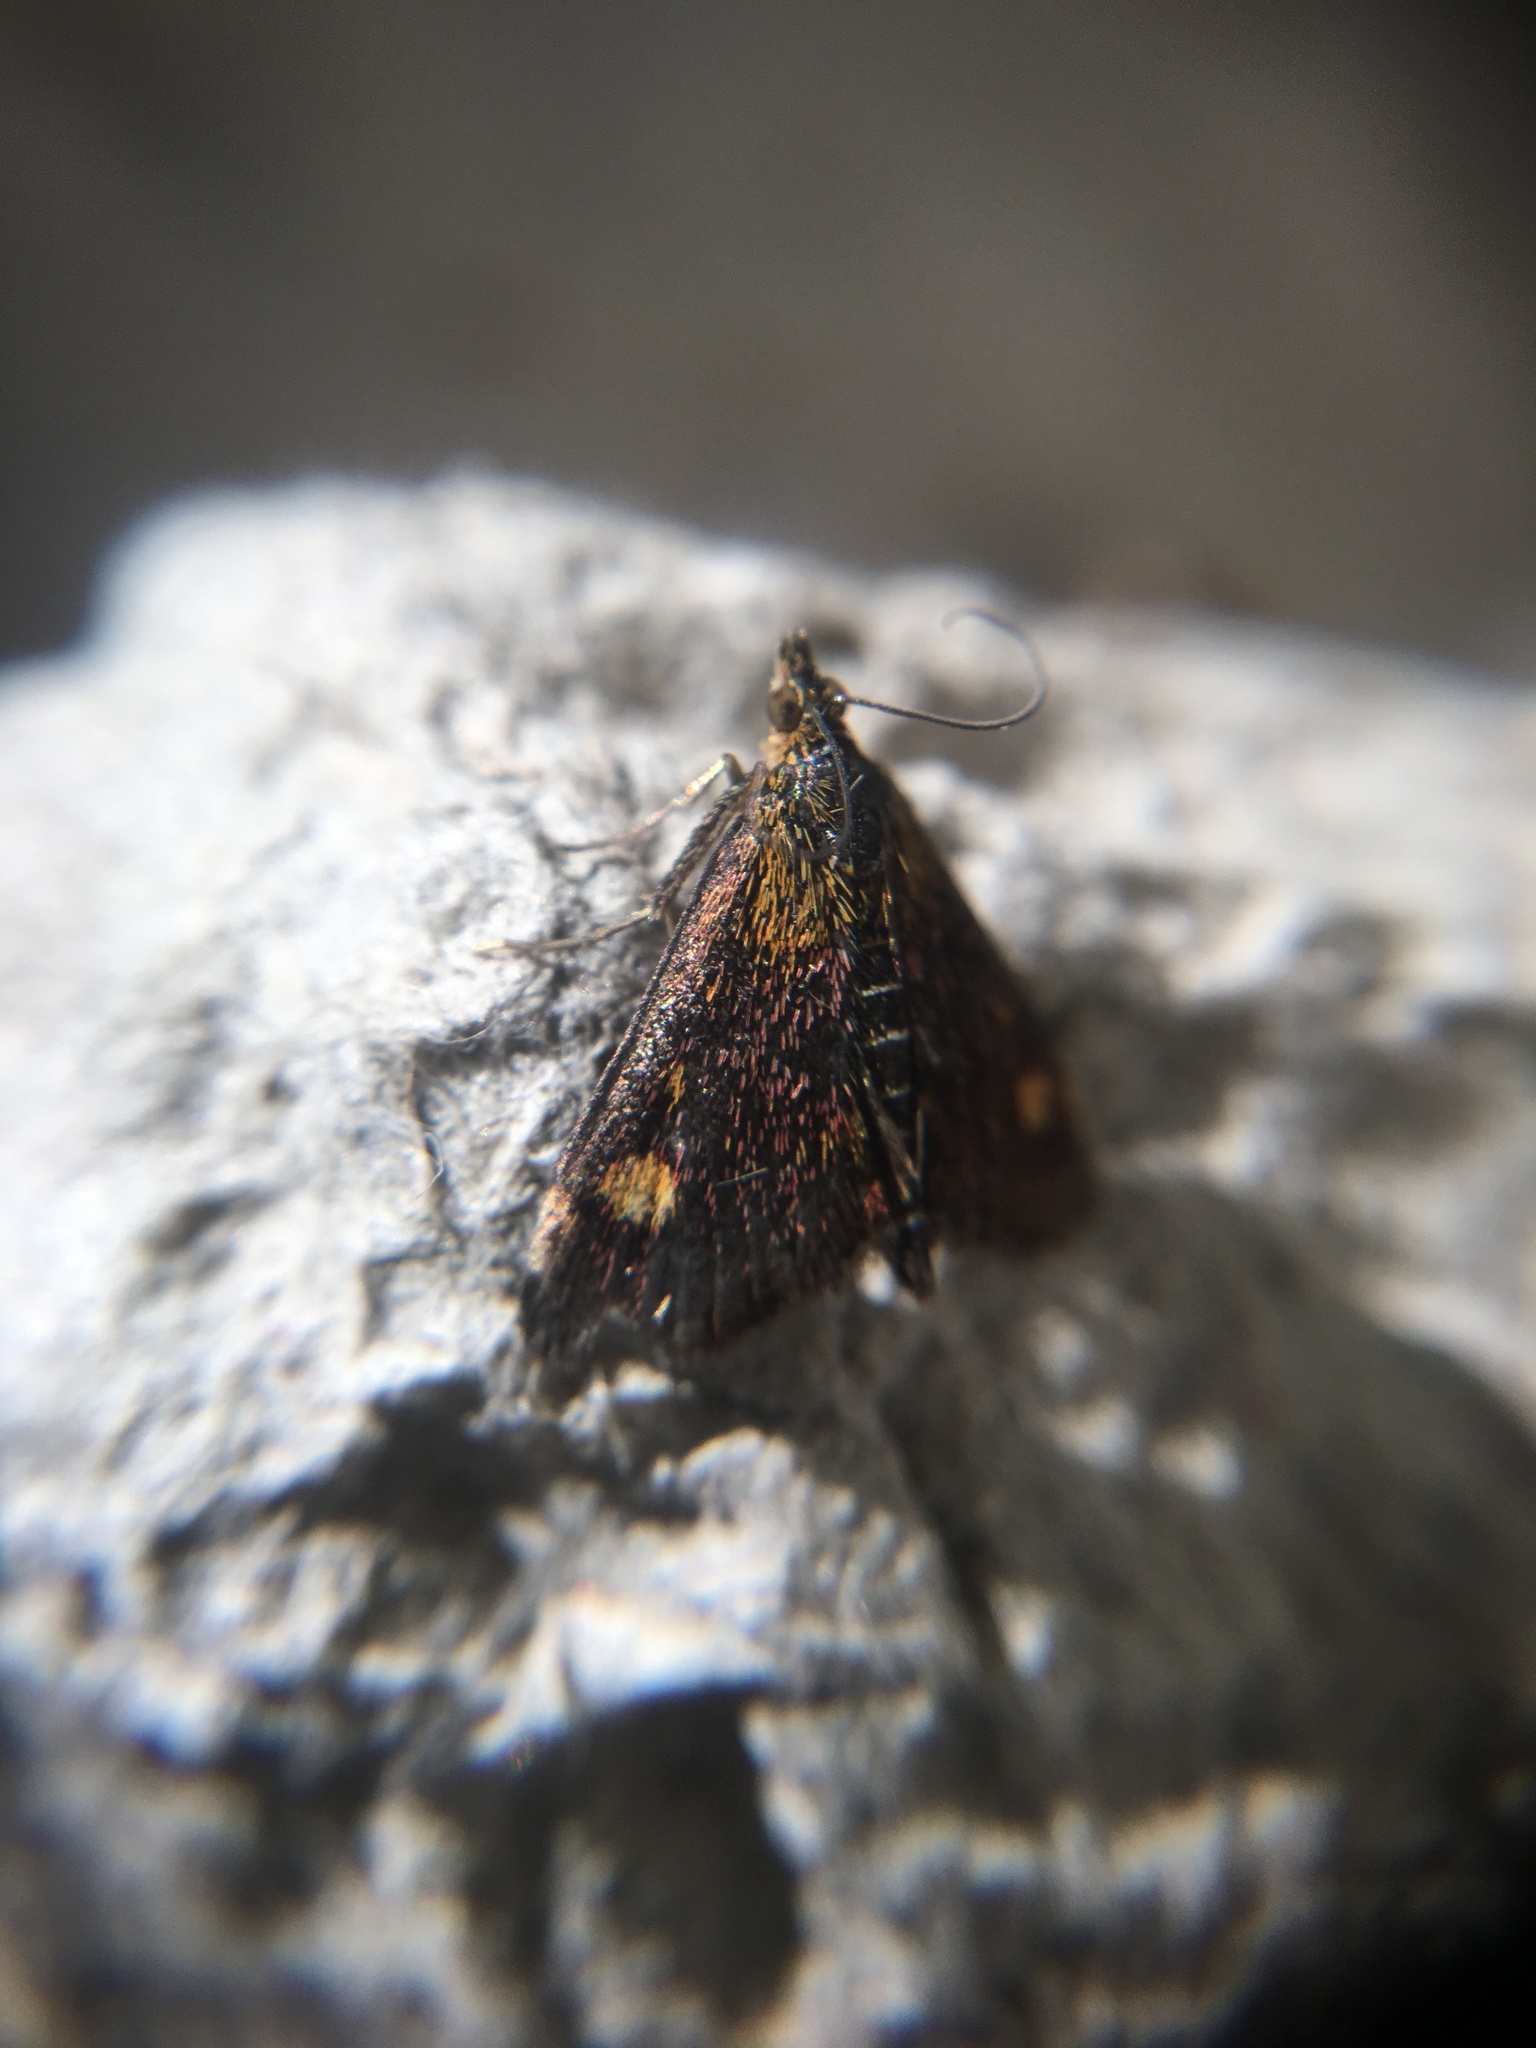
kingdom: Animalia
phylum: Arthropoda
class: Insecta
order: Lepidoptera
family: Crambidae
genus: Pyrausta
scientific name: Pyrausta aurata
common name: Small purple & gold
